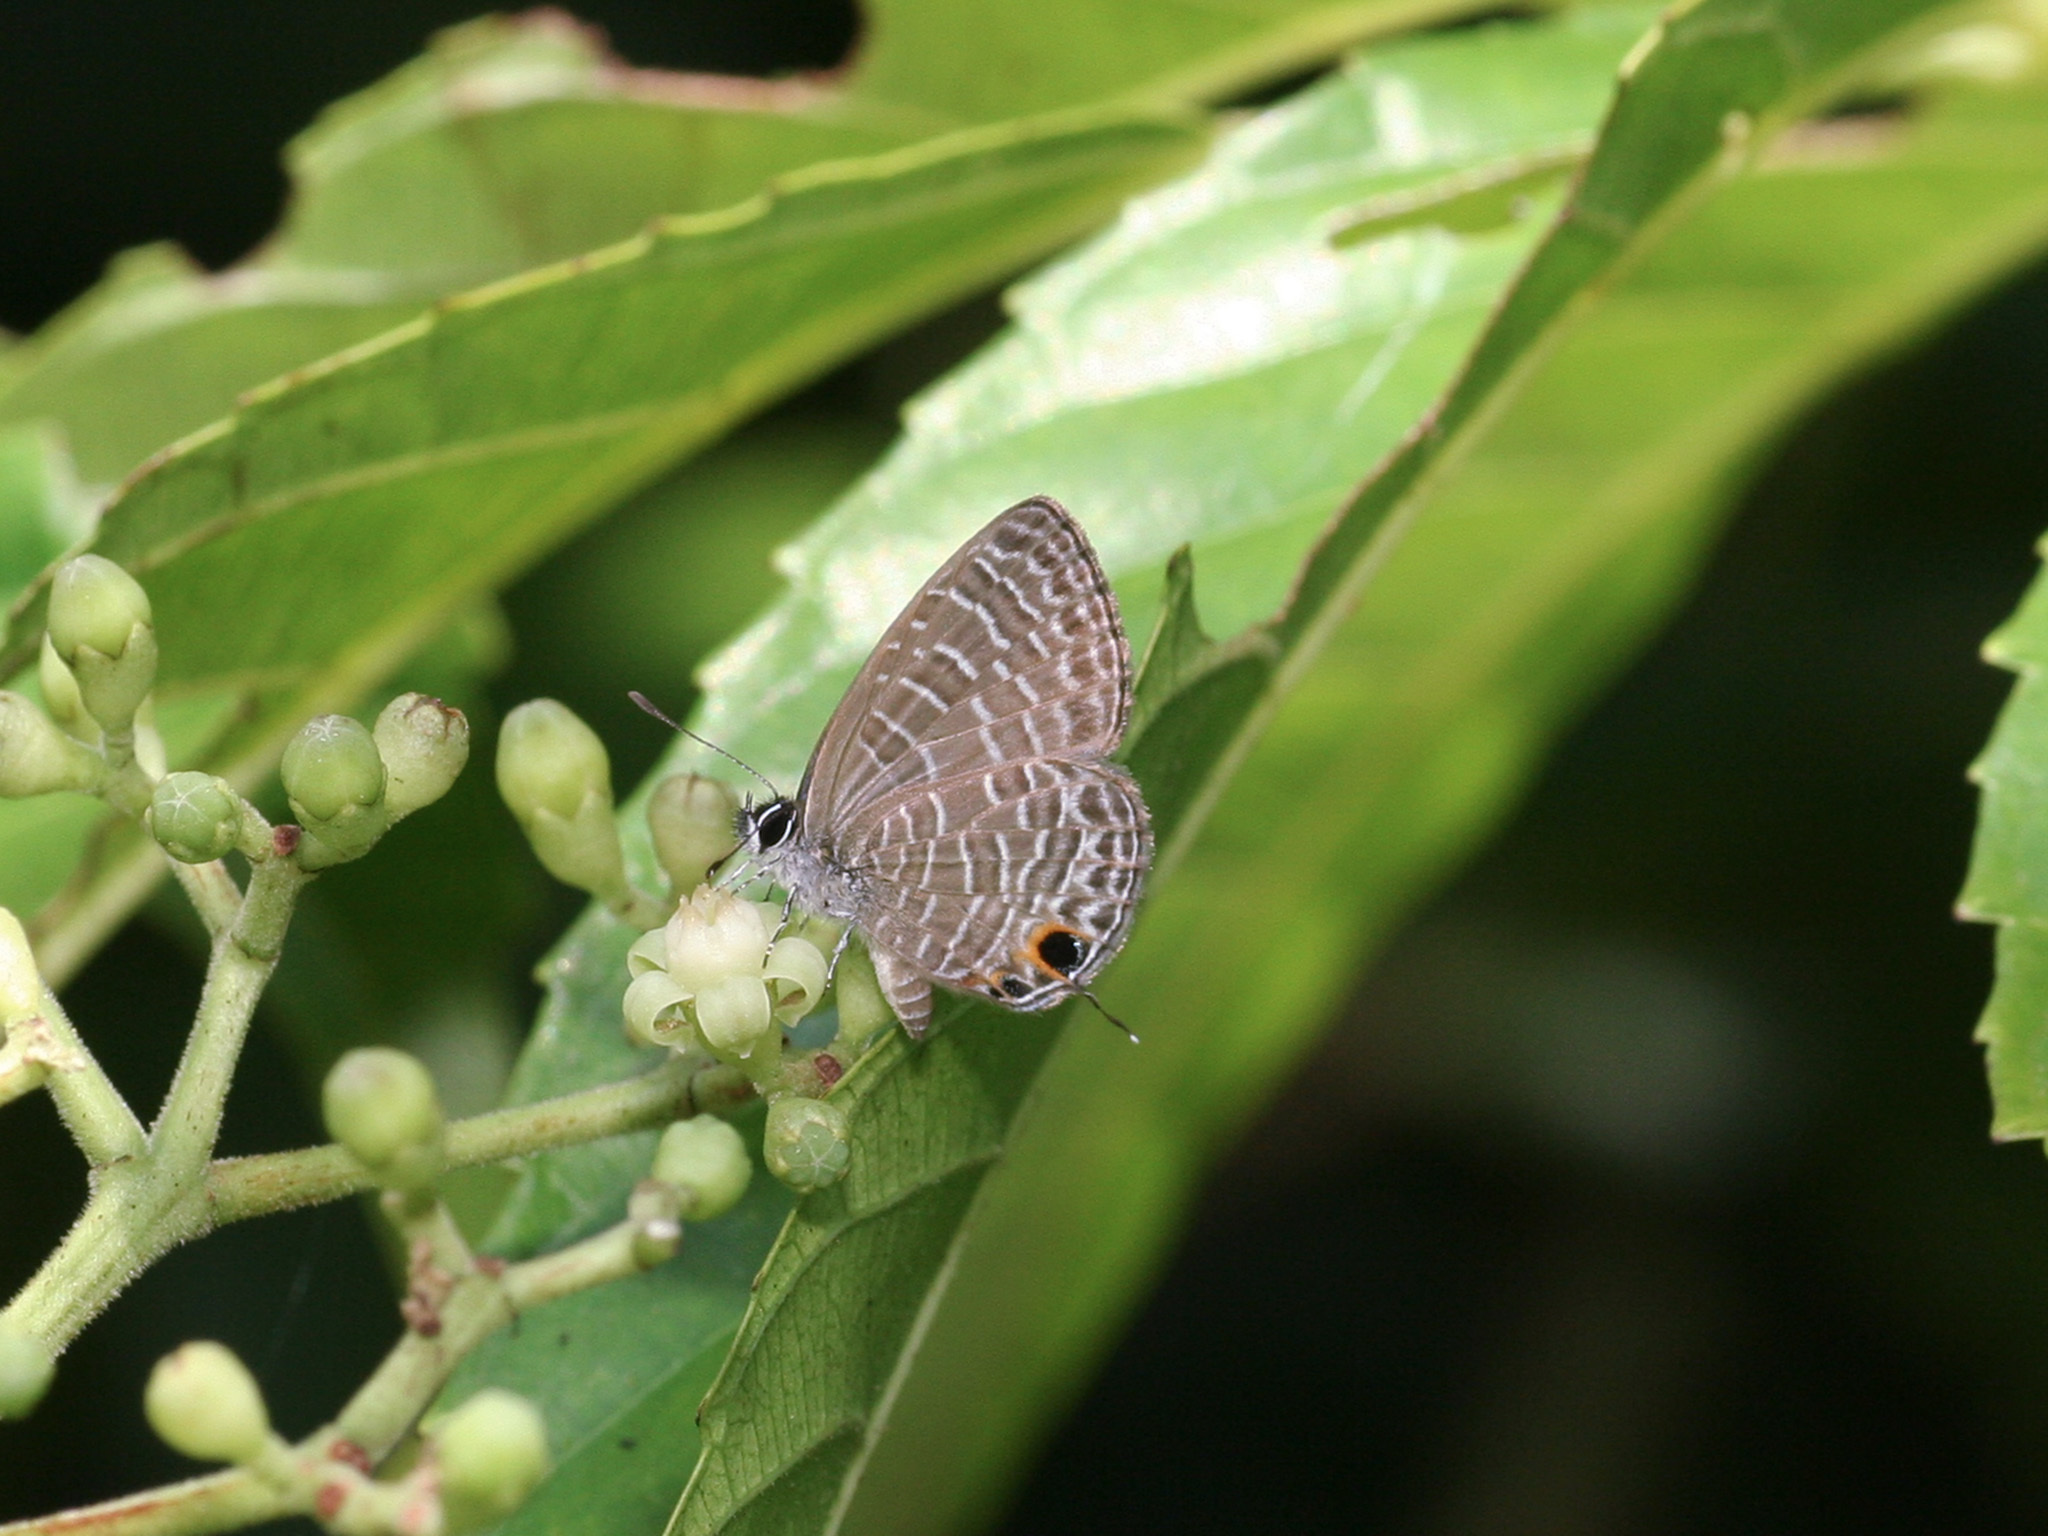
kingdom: Animalia
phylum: Arthropoda
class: Insecta
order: Lepidoptera
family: Lycaenidae
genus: Prosotas
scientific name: Prosotas aluta
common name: Barred lineblue
